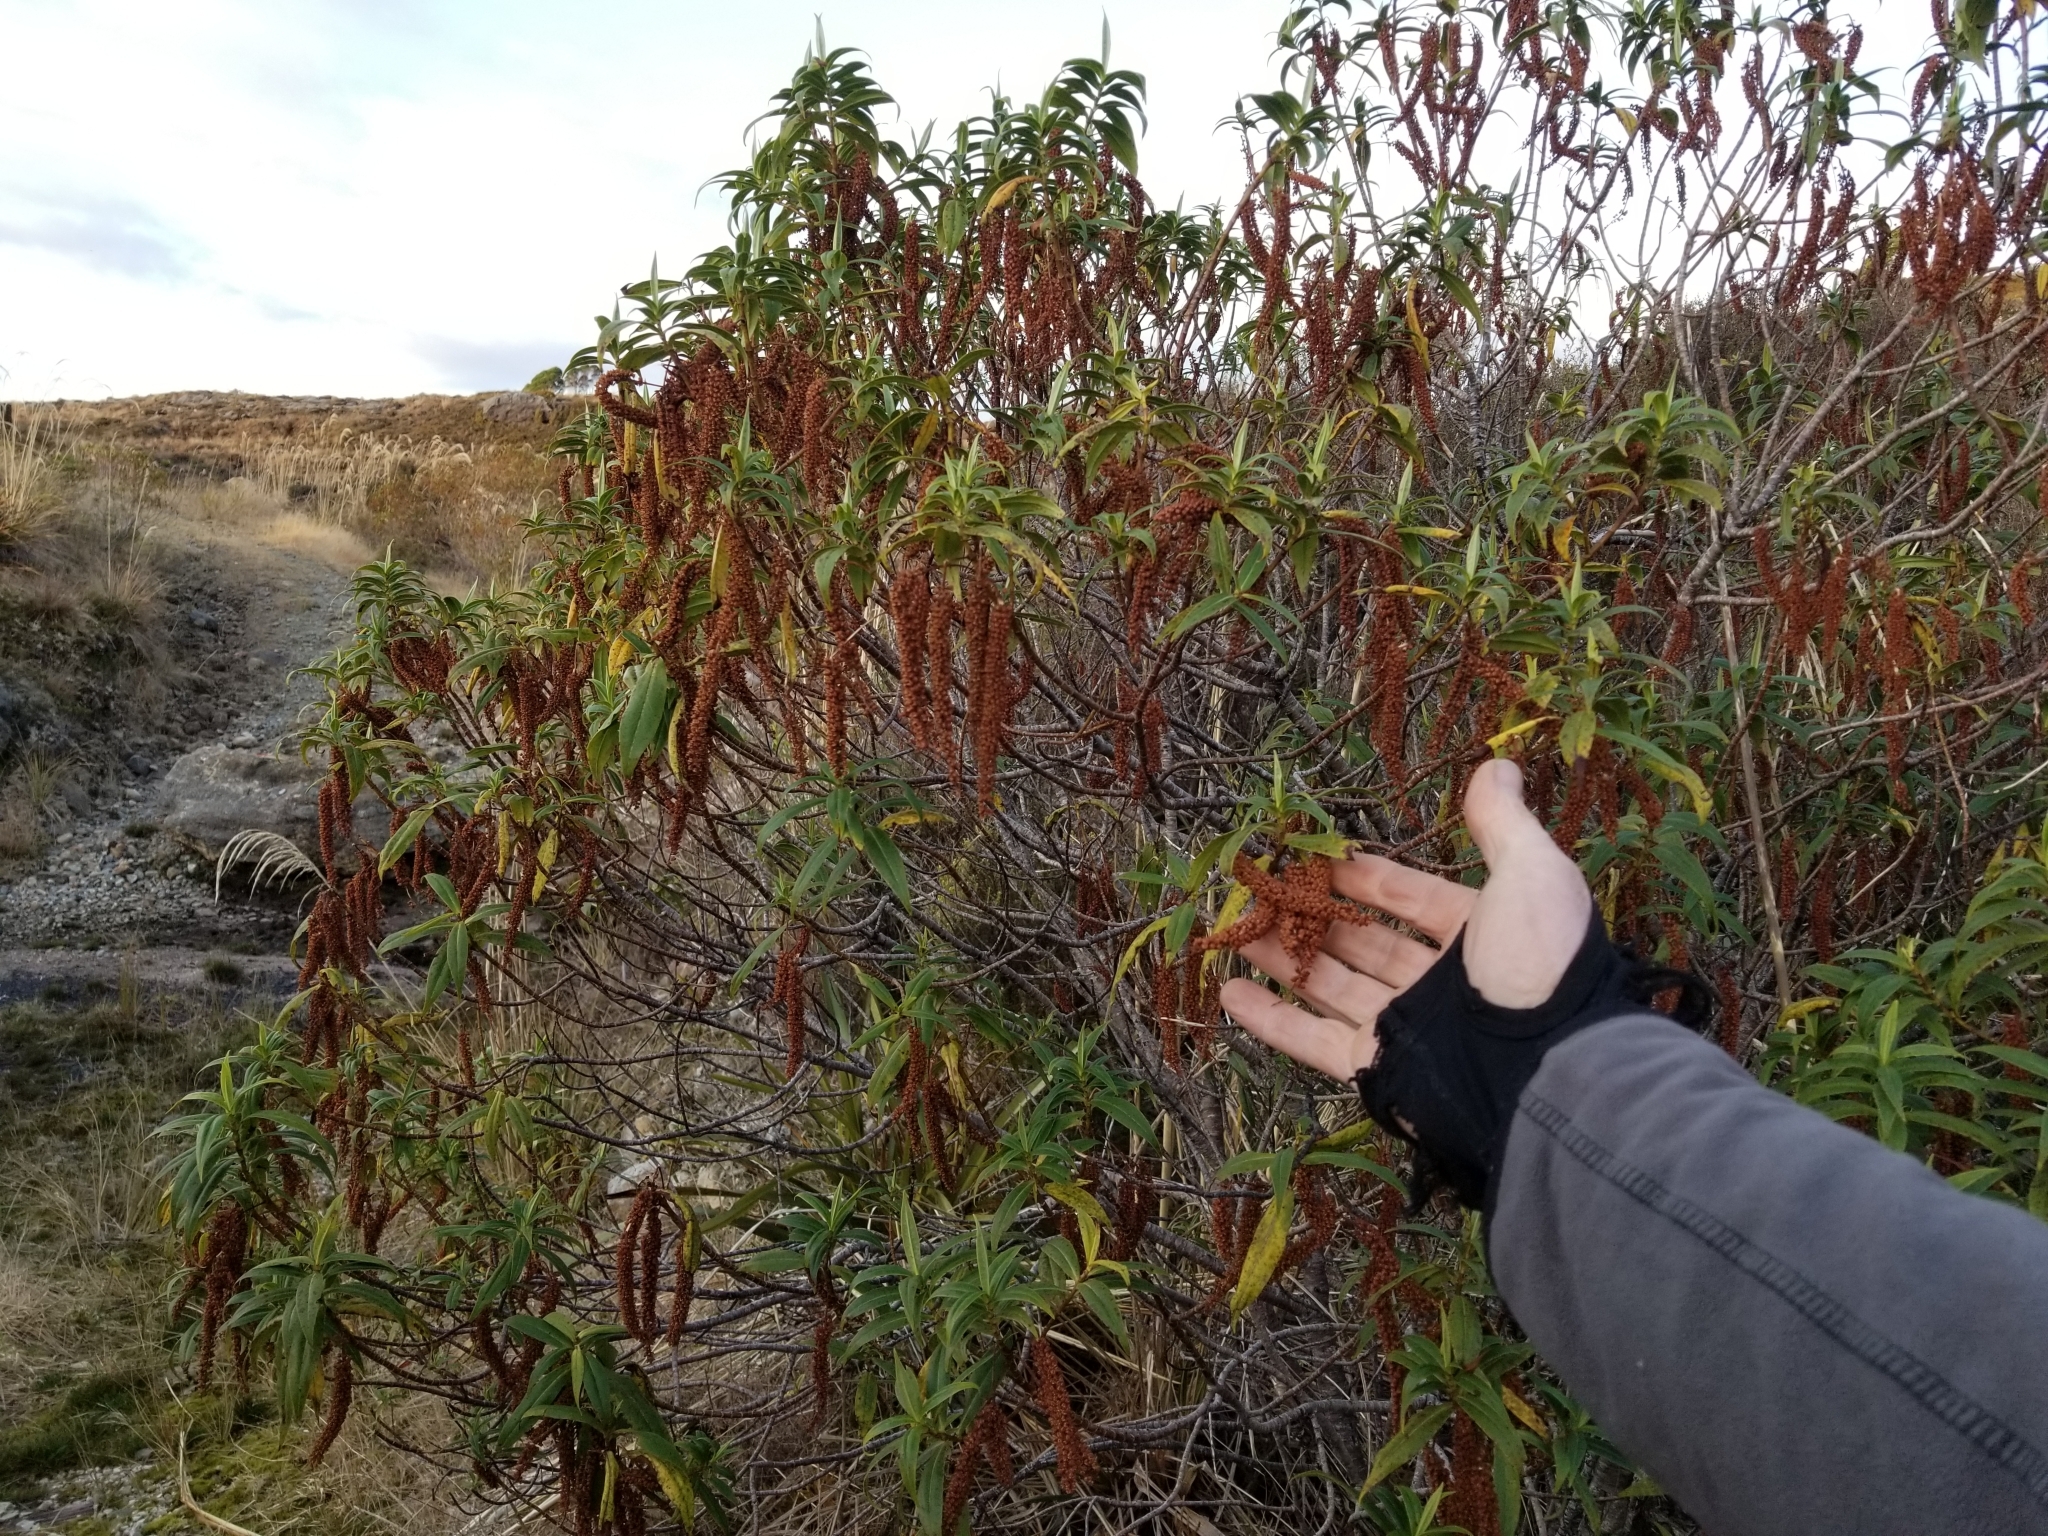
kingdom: Plantae
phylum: Tracheophyta
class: Magnoliopsida
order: Lamiales
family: Plantaginaceae
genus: Veronica
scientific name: Veronica salicifolia
